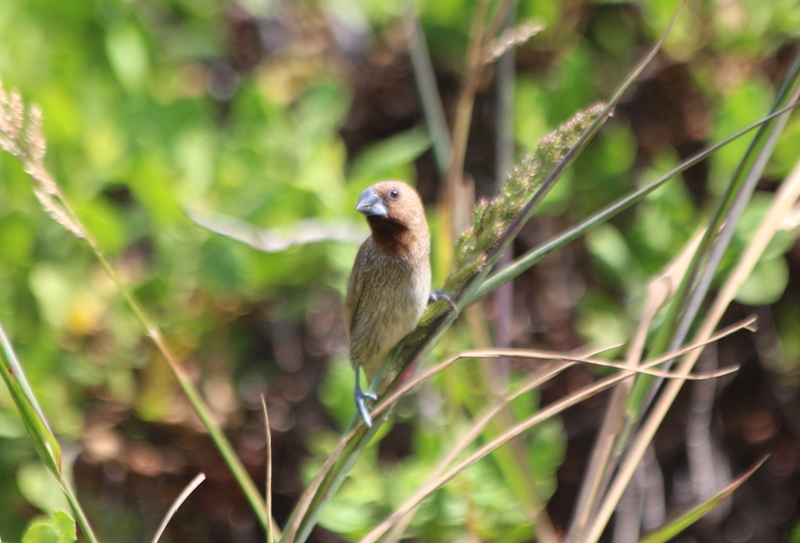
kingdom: Animalia
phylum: Chordata
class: Aves
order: Passeriformes
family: Estrildidae
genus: Lonchura
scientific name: Lonchura punctulata
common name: Scaly-breasted munia
